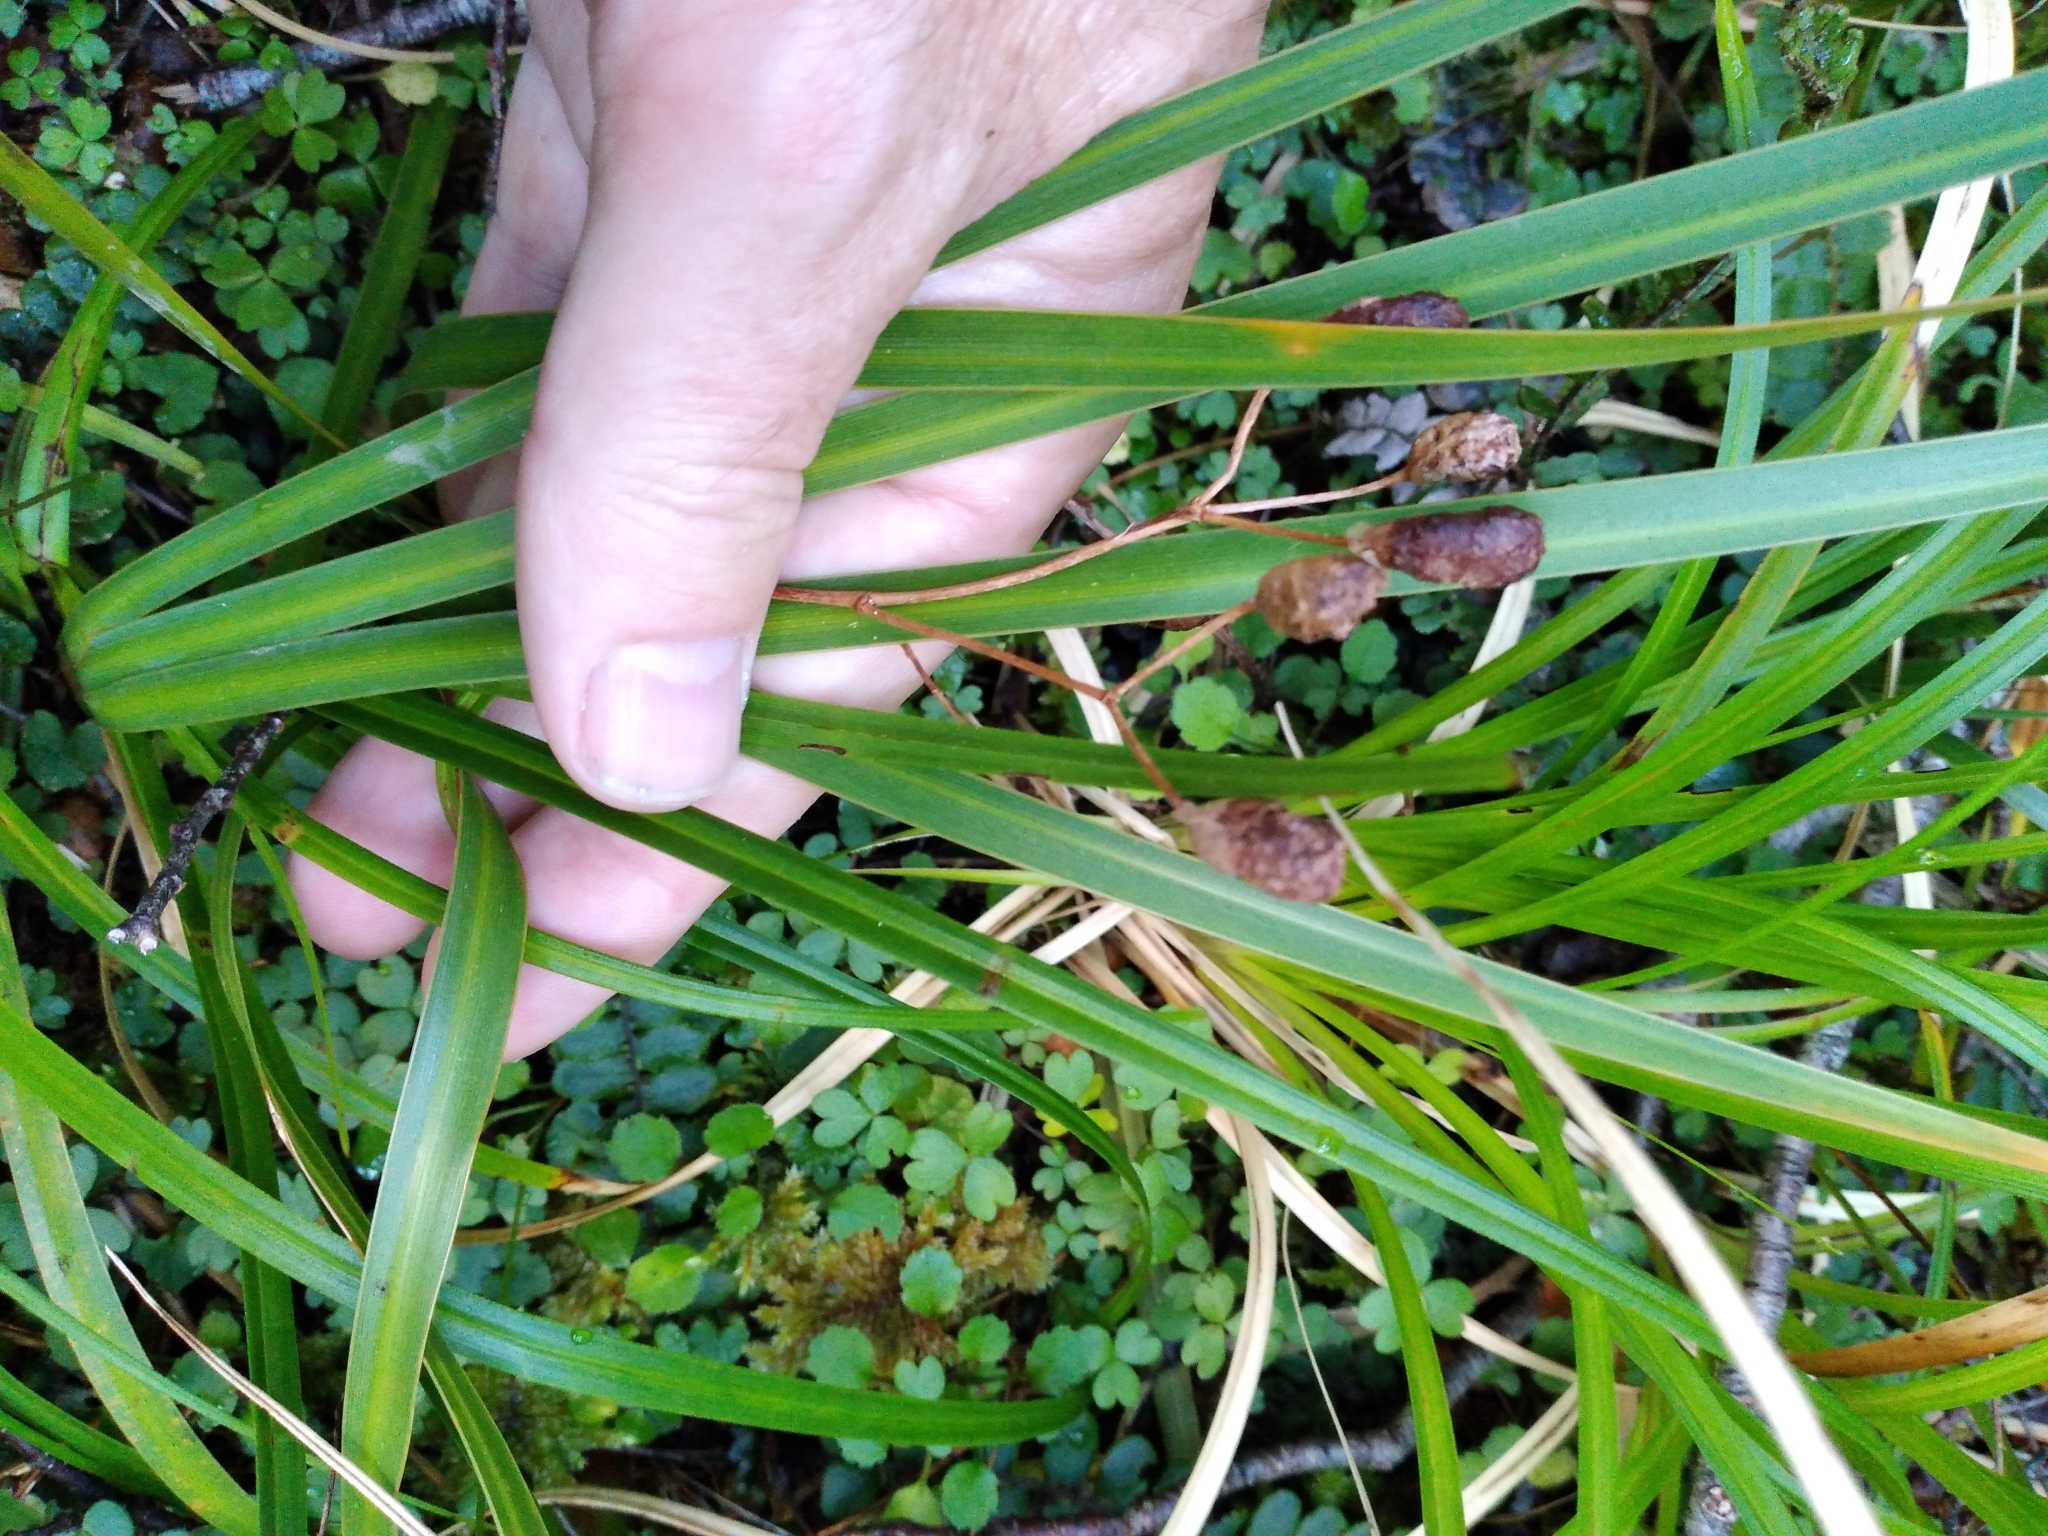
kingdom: Plantae
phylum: Tracheophyta
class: Liliopsida
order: Asparagales
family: Iridaceae
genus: Libertia
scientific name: Libertia ixioides
